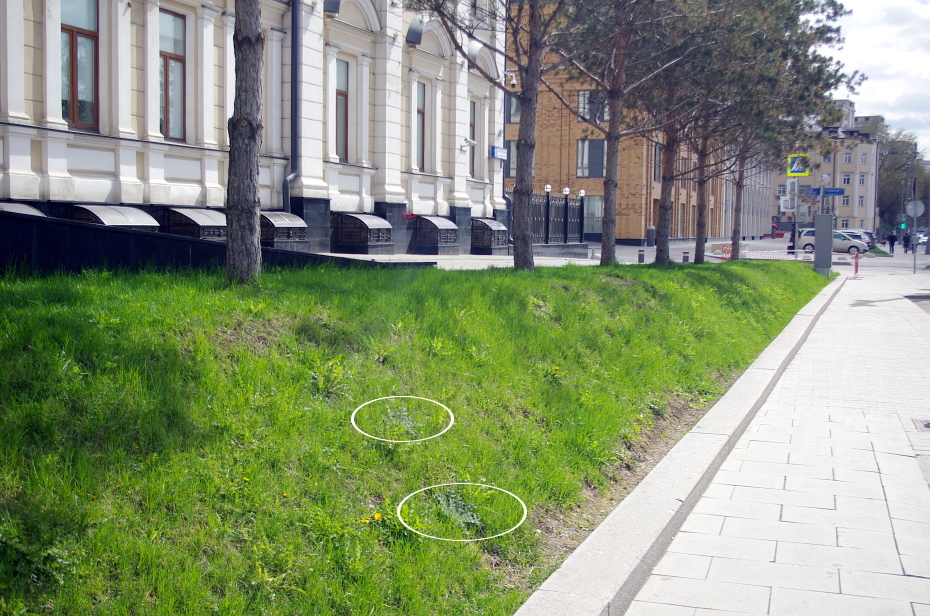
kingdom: Plantae
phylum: Tracheophyta
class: Magnoliopsida
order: Asterales
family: Asteraceae
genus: Cirsium
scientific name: Cirsium vulgare
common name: Bull thistle
